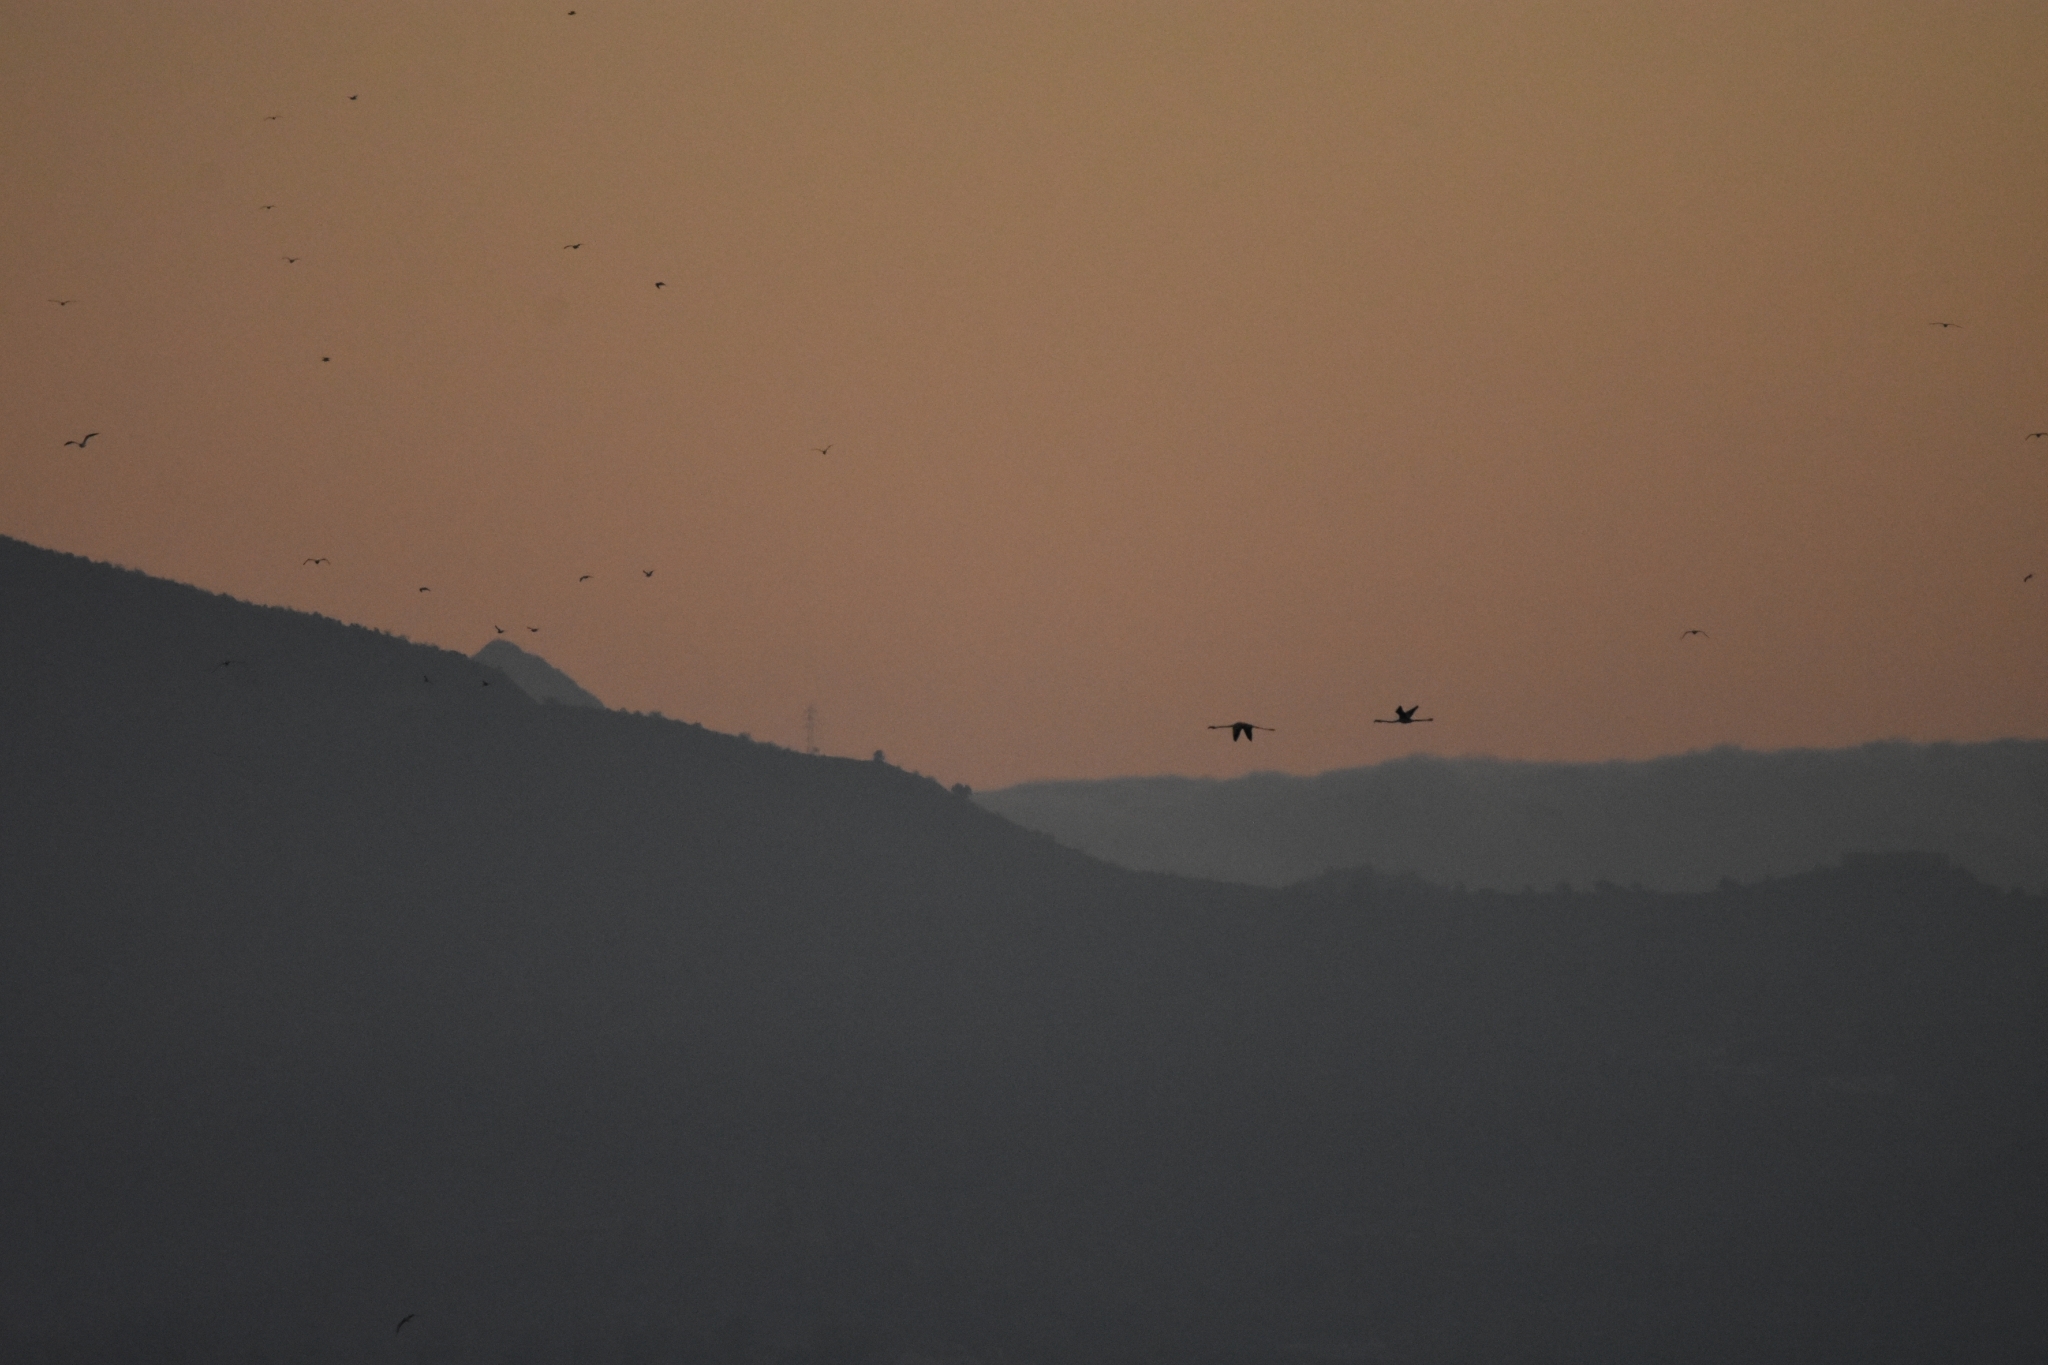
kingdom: Animalia
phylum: Chordata
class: Aves
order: Phoenicopteriformes
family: Phoenicopteridae
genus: Phoenicopterus
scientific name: Phoenicopterus roseus
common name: Greater flamingo
